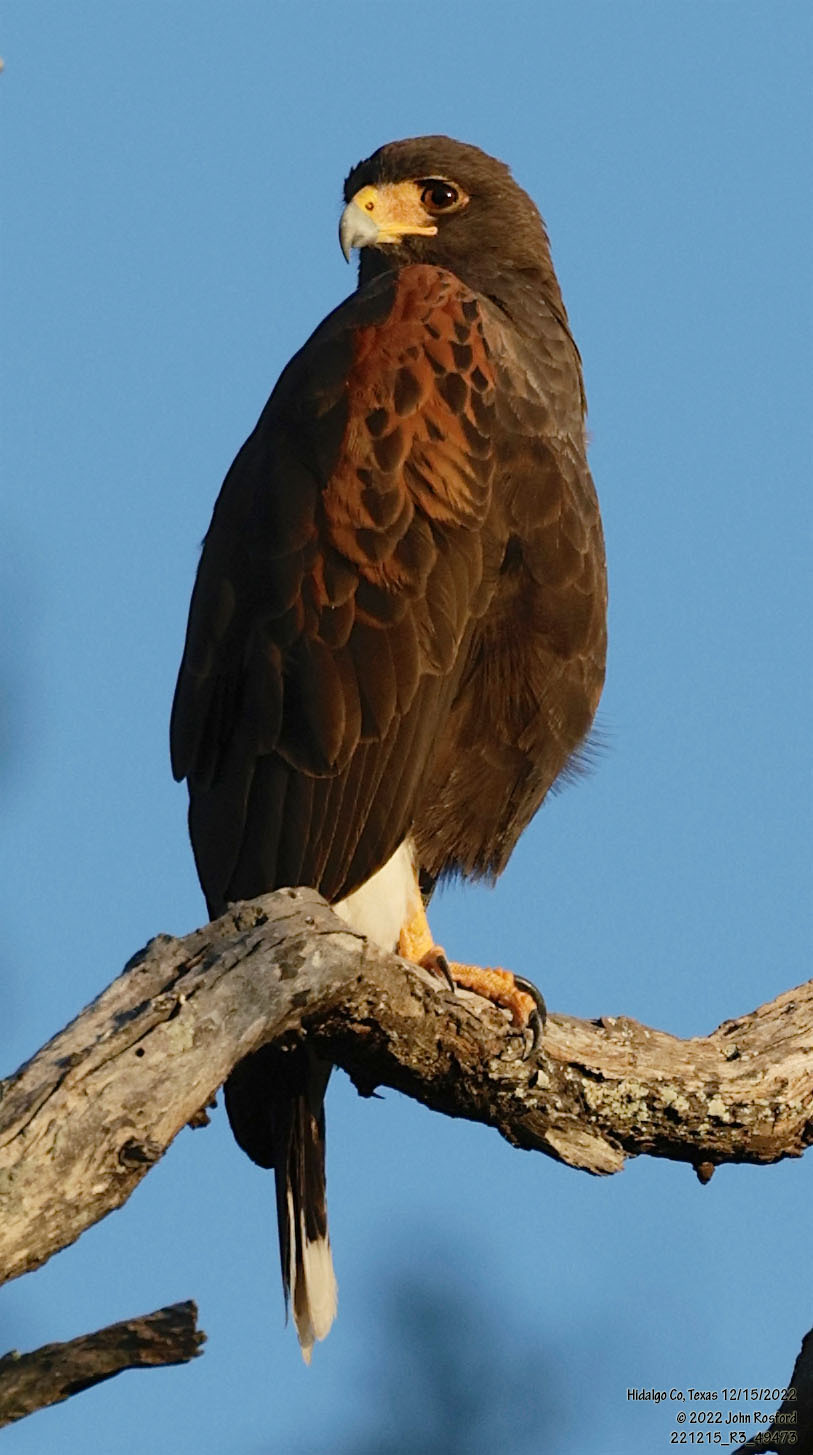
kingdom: Animalia
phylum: Chordata
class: Aves
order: Accipitriformes
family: Accipitridae
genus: Parabuteo
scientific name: Parabuteo unicinctus
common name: Harris's hawk
